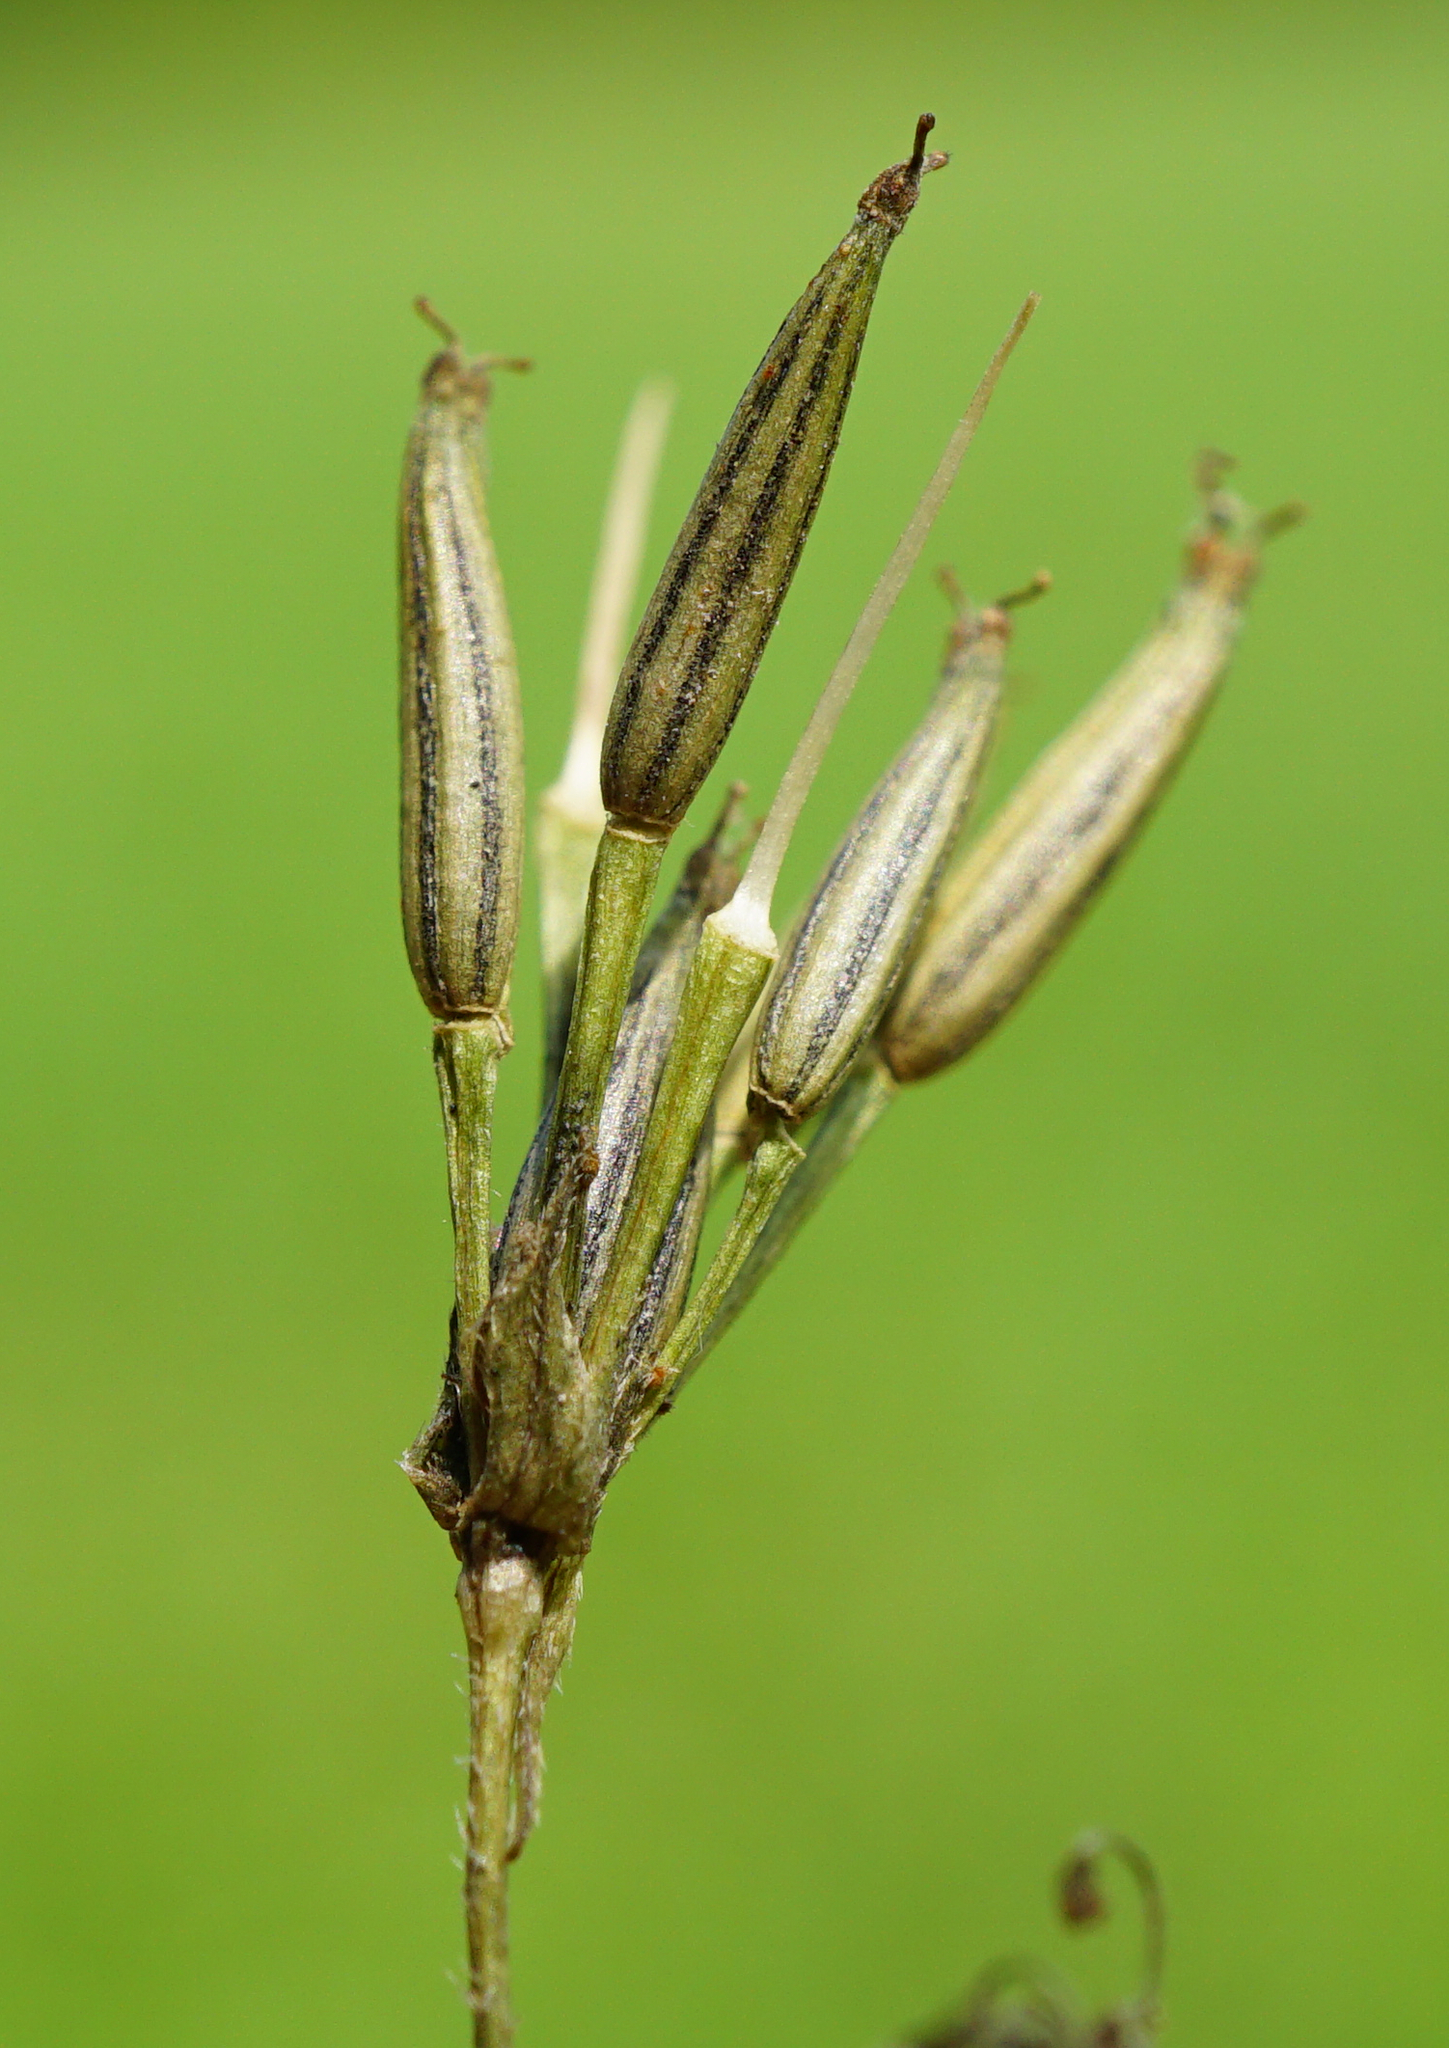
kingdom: Plantae
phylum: Tracheophyta
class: Magnoliopsida
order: Apiales
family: Apiaceae
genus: Chaerophyllum
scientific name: Chaerophyllum temulum
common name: Rough chervil
